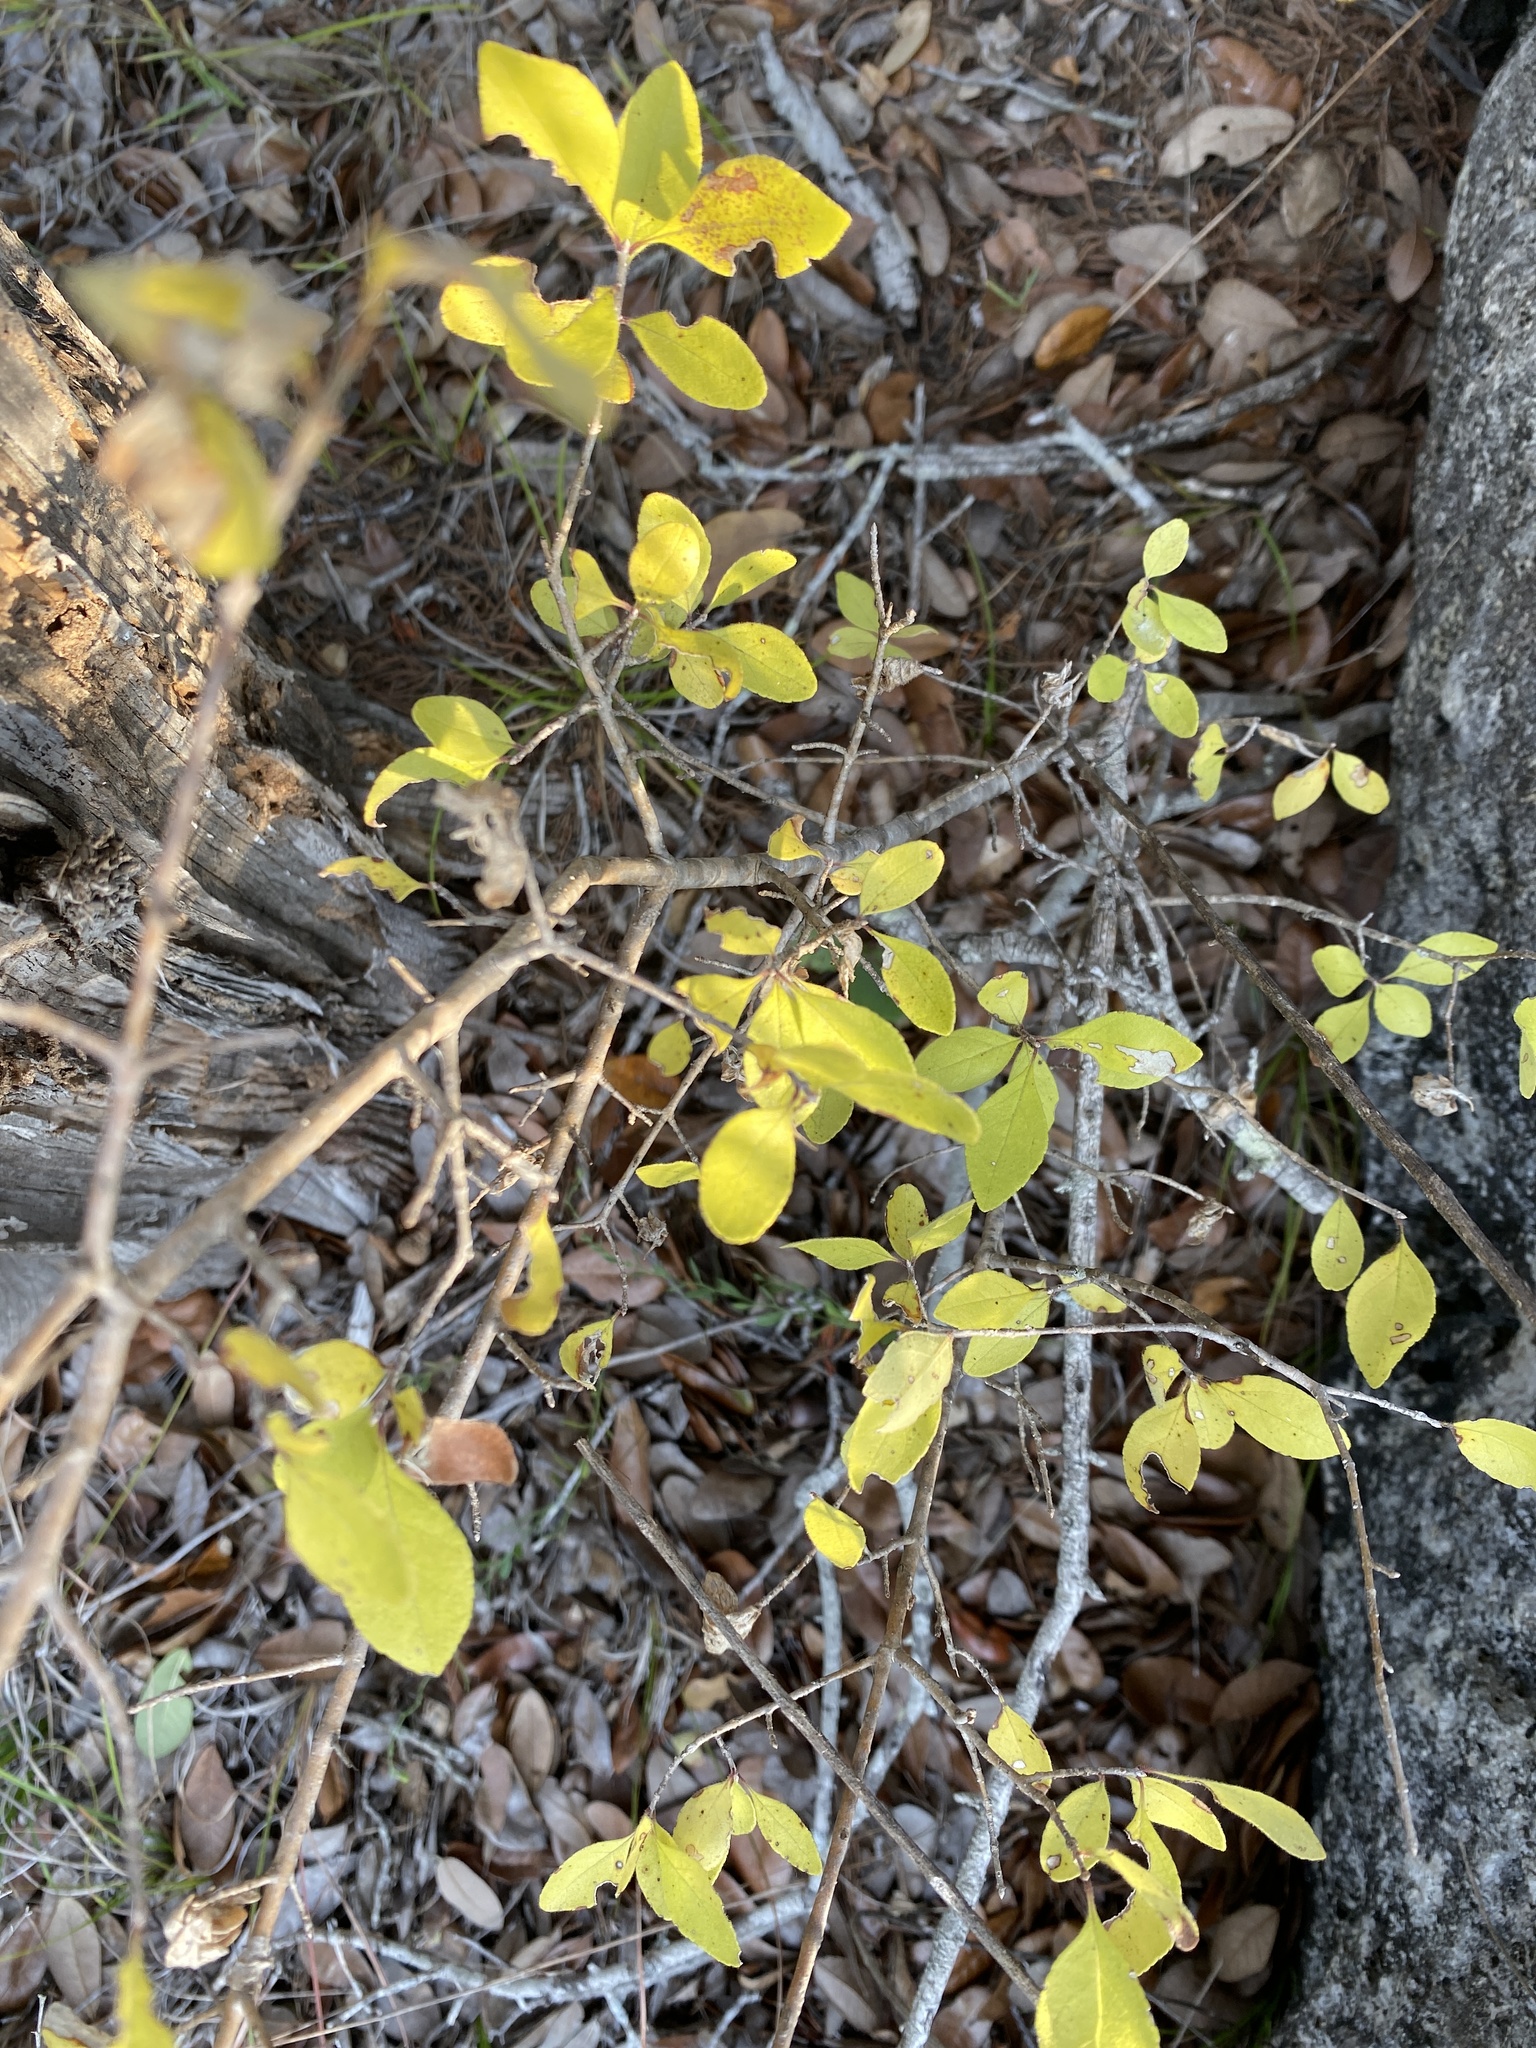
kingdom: Plantae
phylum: Tracheophyta
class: Magnoliopsida
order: Lamiales
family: Oleaceae
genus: Forestiera
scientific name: Forestiera pubescens
